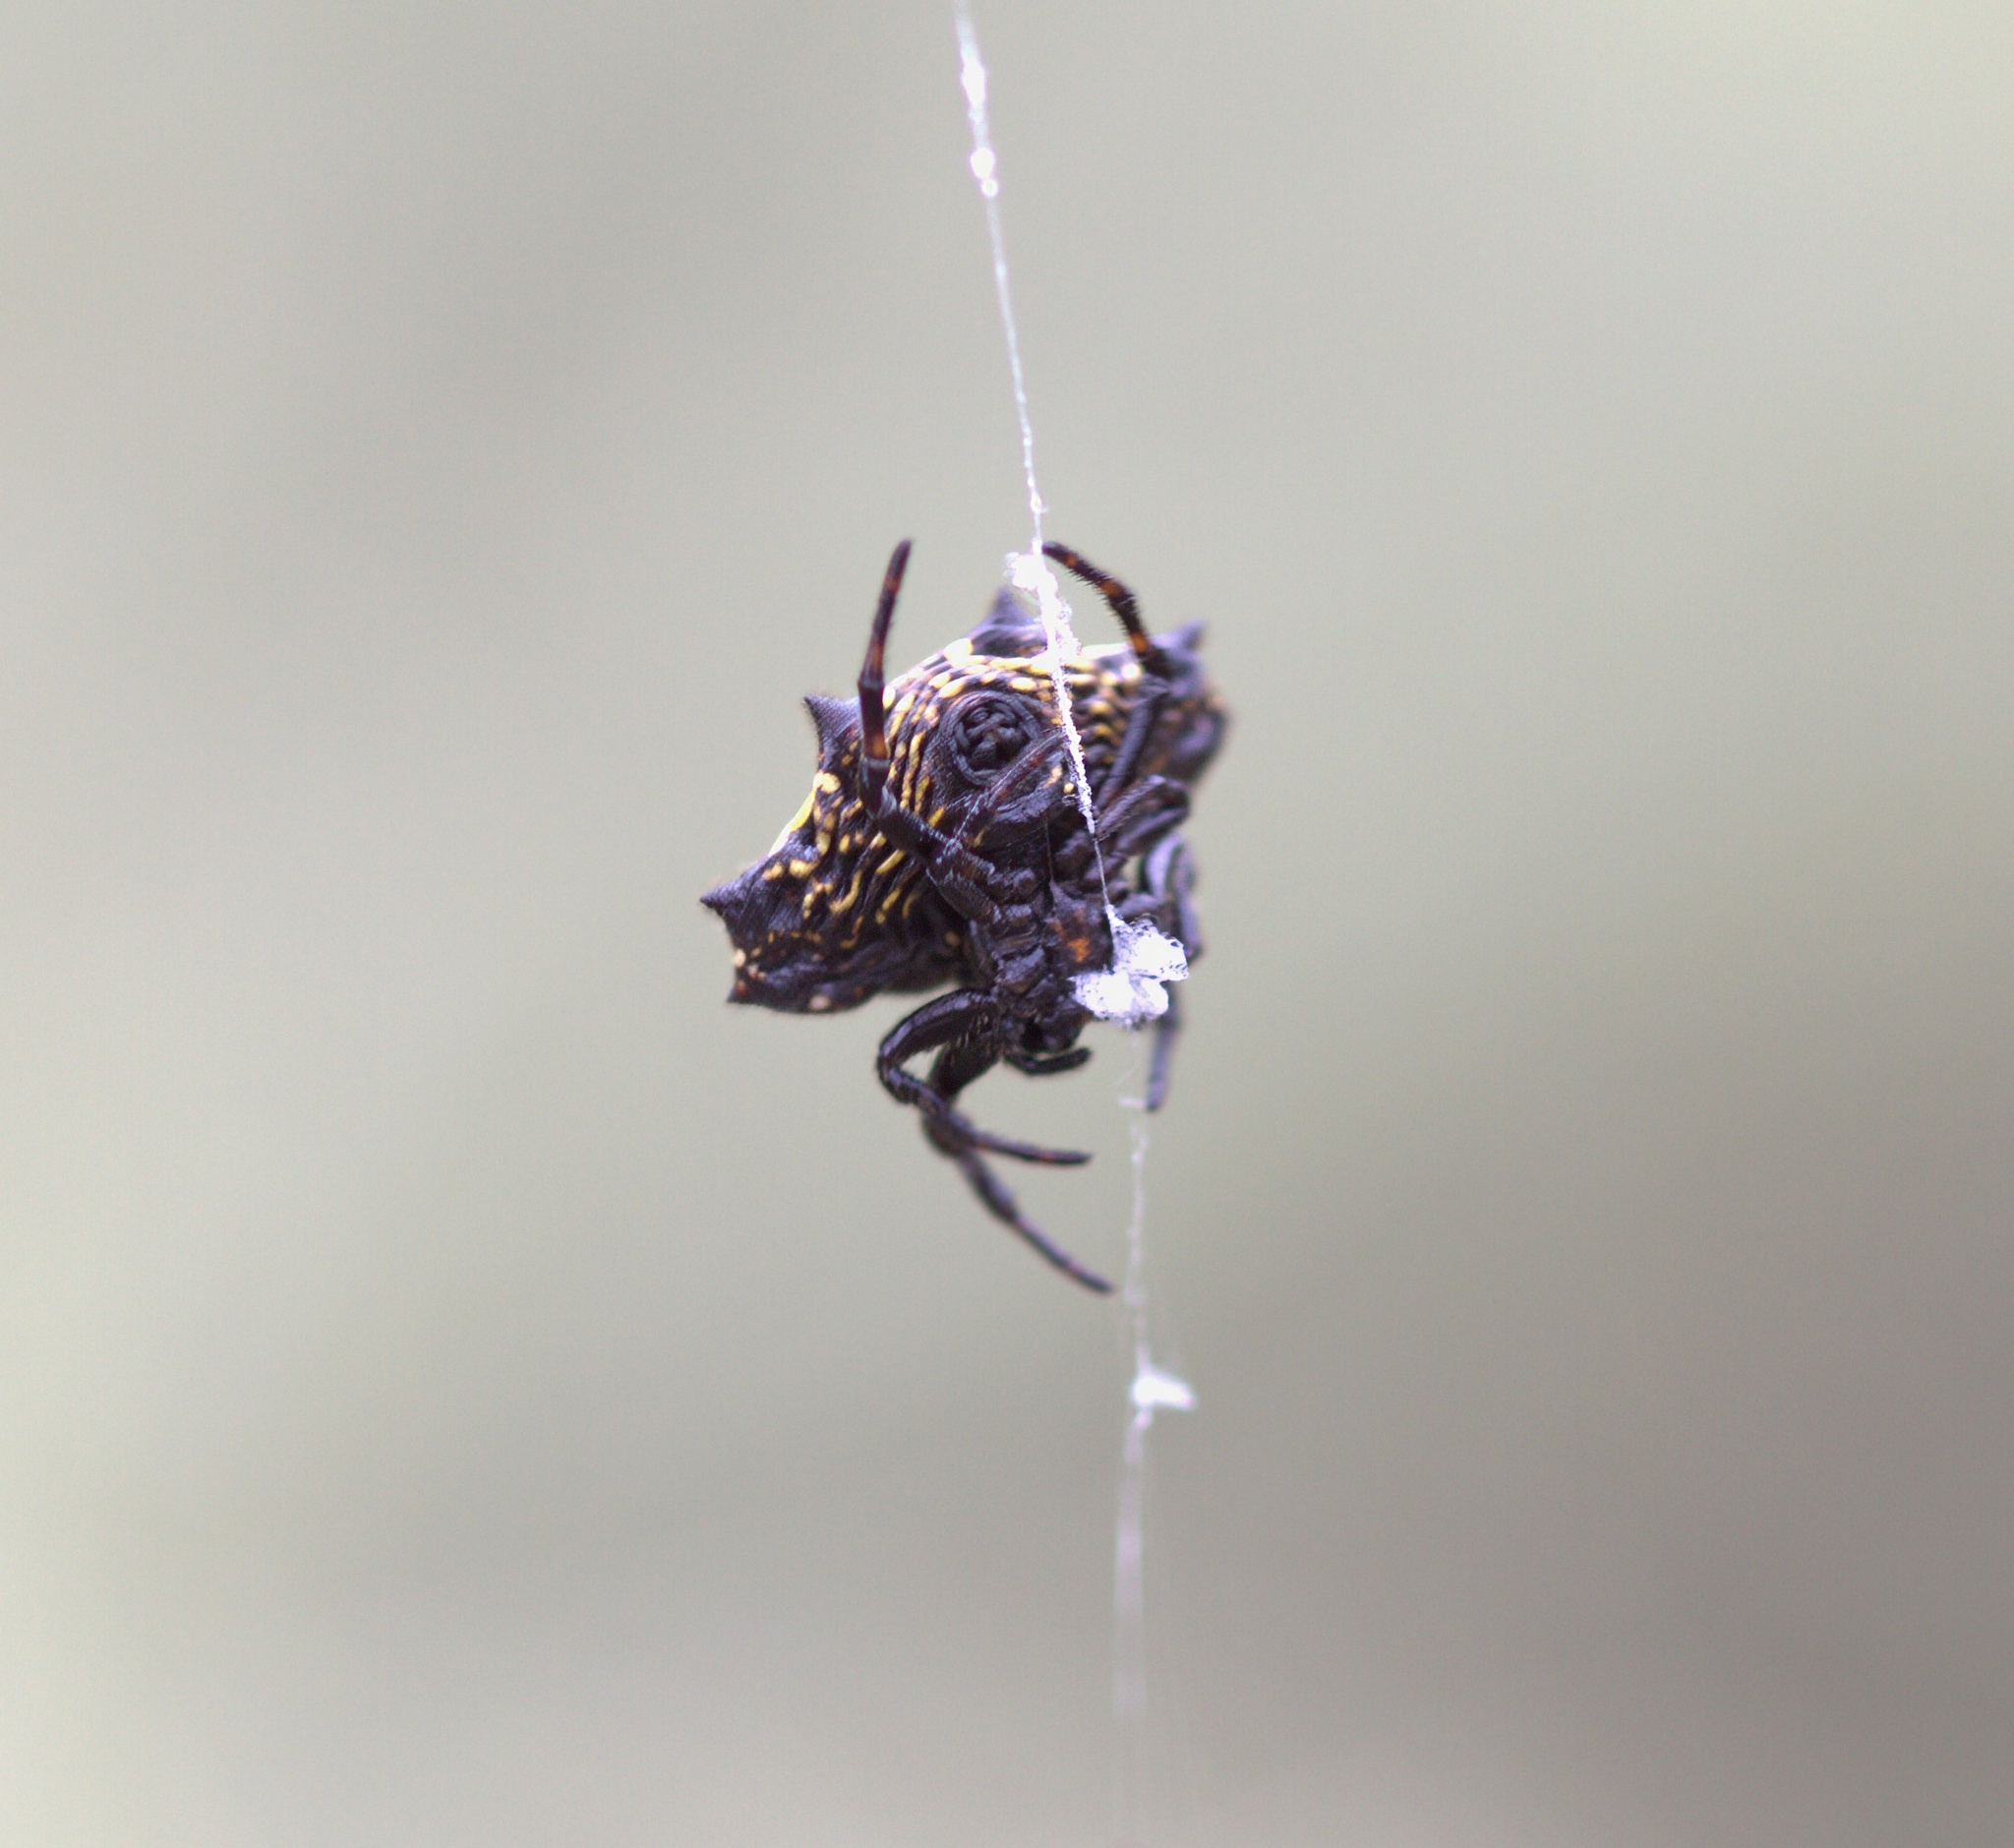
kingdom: Animalia
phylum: Arthropoda
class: Arachnida
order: Araneae
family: Araneidae
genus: Gasteracantha
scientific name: Gasteracantha cancriformis
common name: Orb weavers
